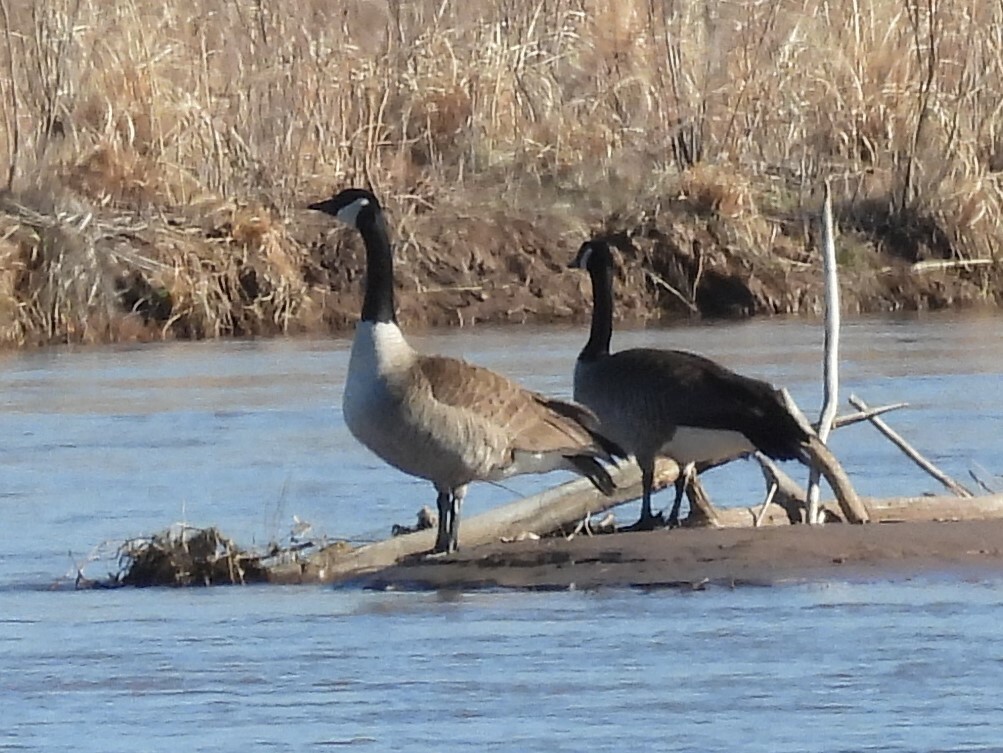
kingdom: Animalia
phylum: Chordata
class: Aves
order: Anseriformes
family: Anatidae
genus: Branta
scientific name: Branta canadensis
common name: Canada goose
